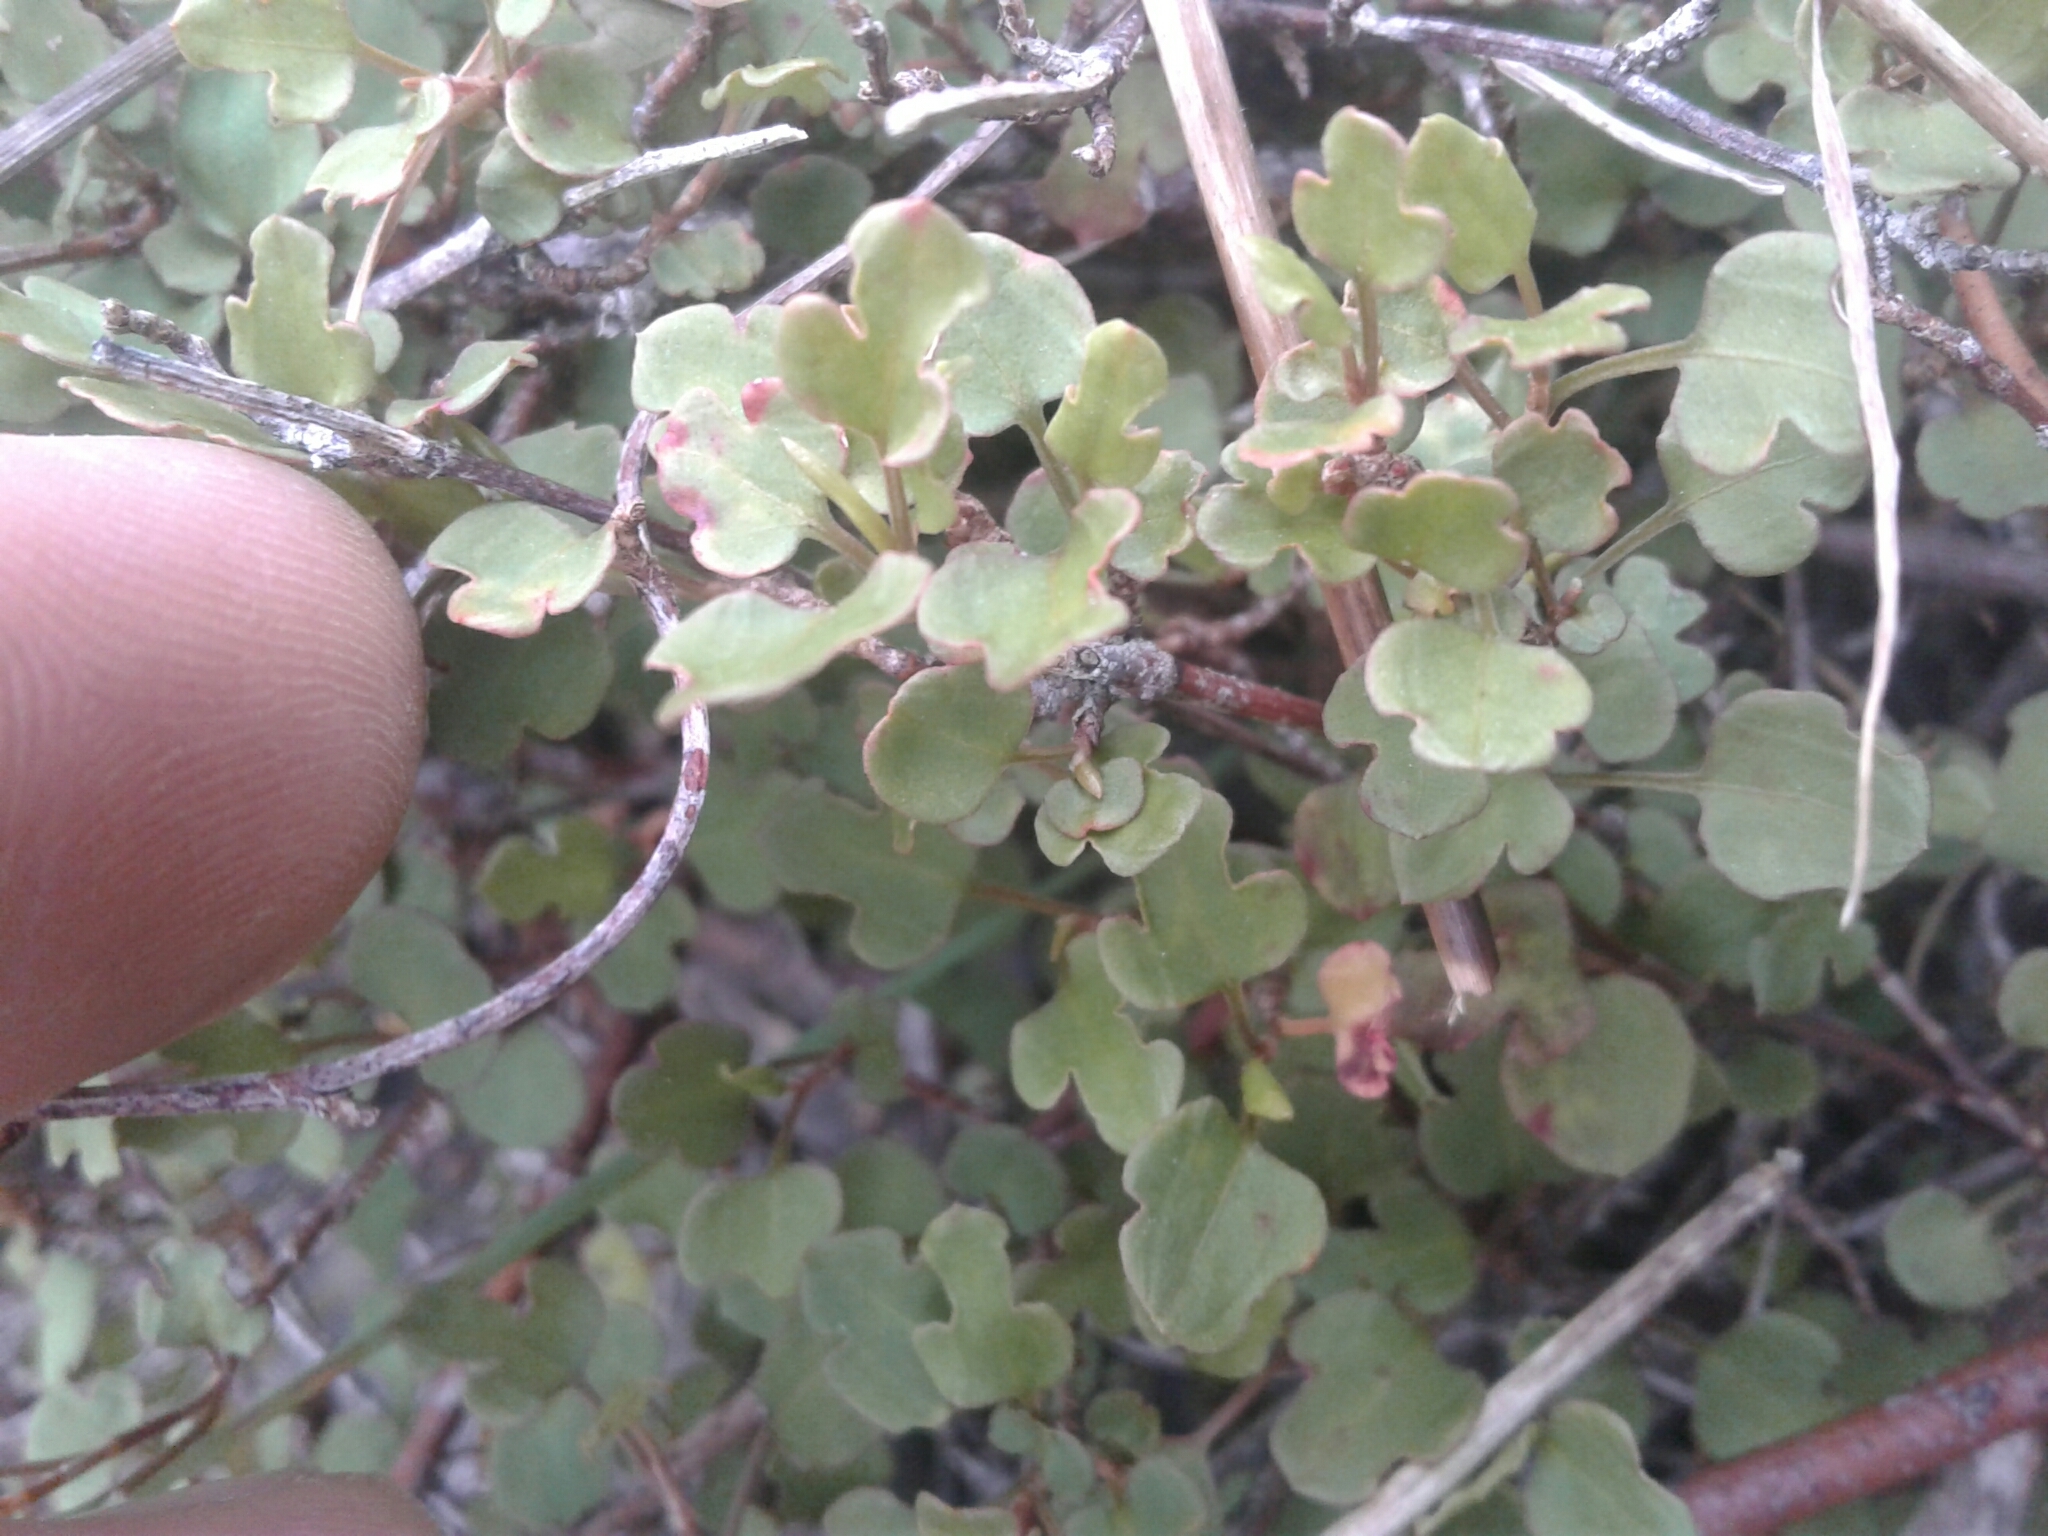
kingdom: Plantae
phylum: Tracheophyta
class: Magnoliopsida
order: Caryophyllales
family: Polygonaceae
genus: Muehlenbeckia
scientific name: Muehlenbeckia
